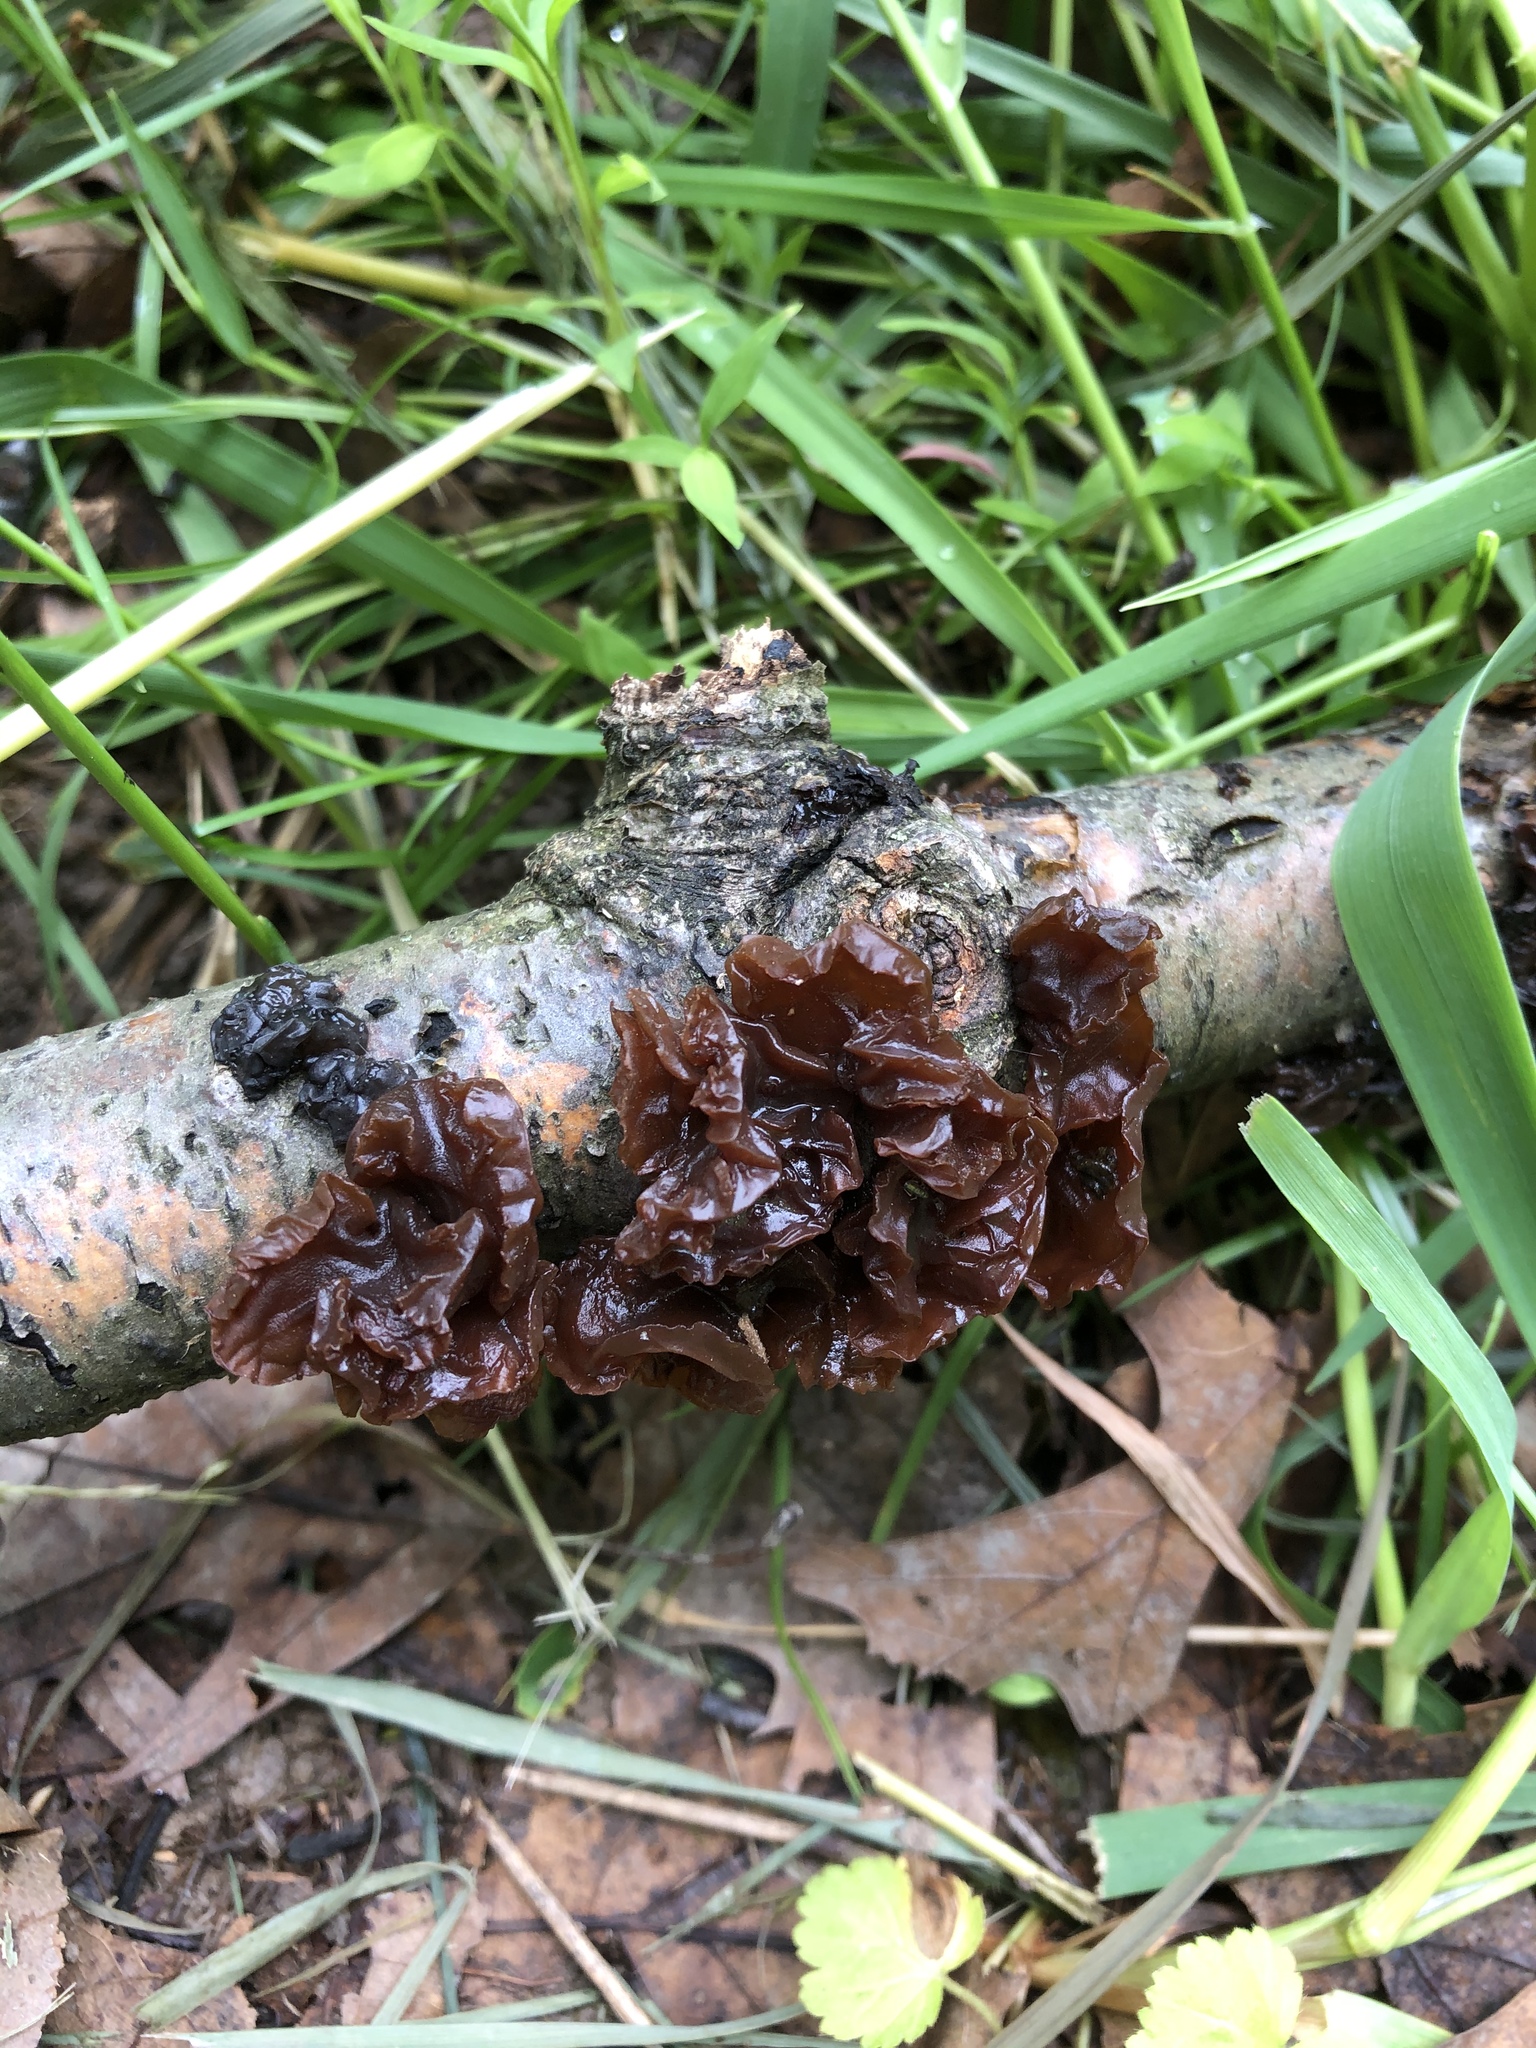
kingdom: Fungi
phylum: Basidiomycota
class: Agaricomycetes
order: Auriculariales
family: Auriculariaceae
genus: Exidia
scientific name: Exidia
